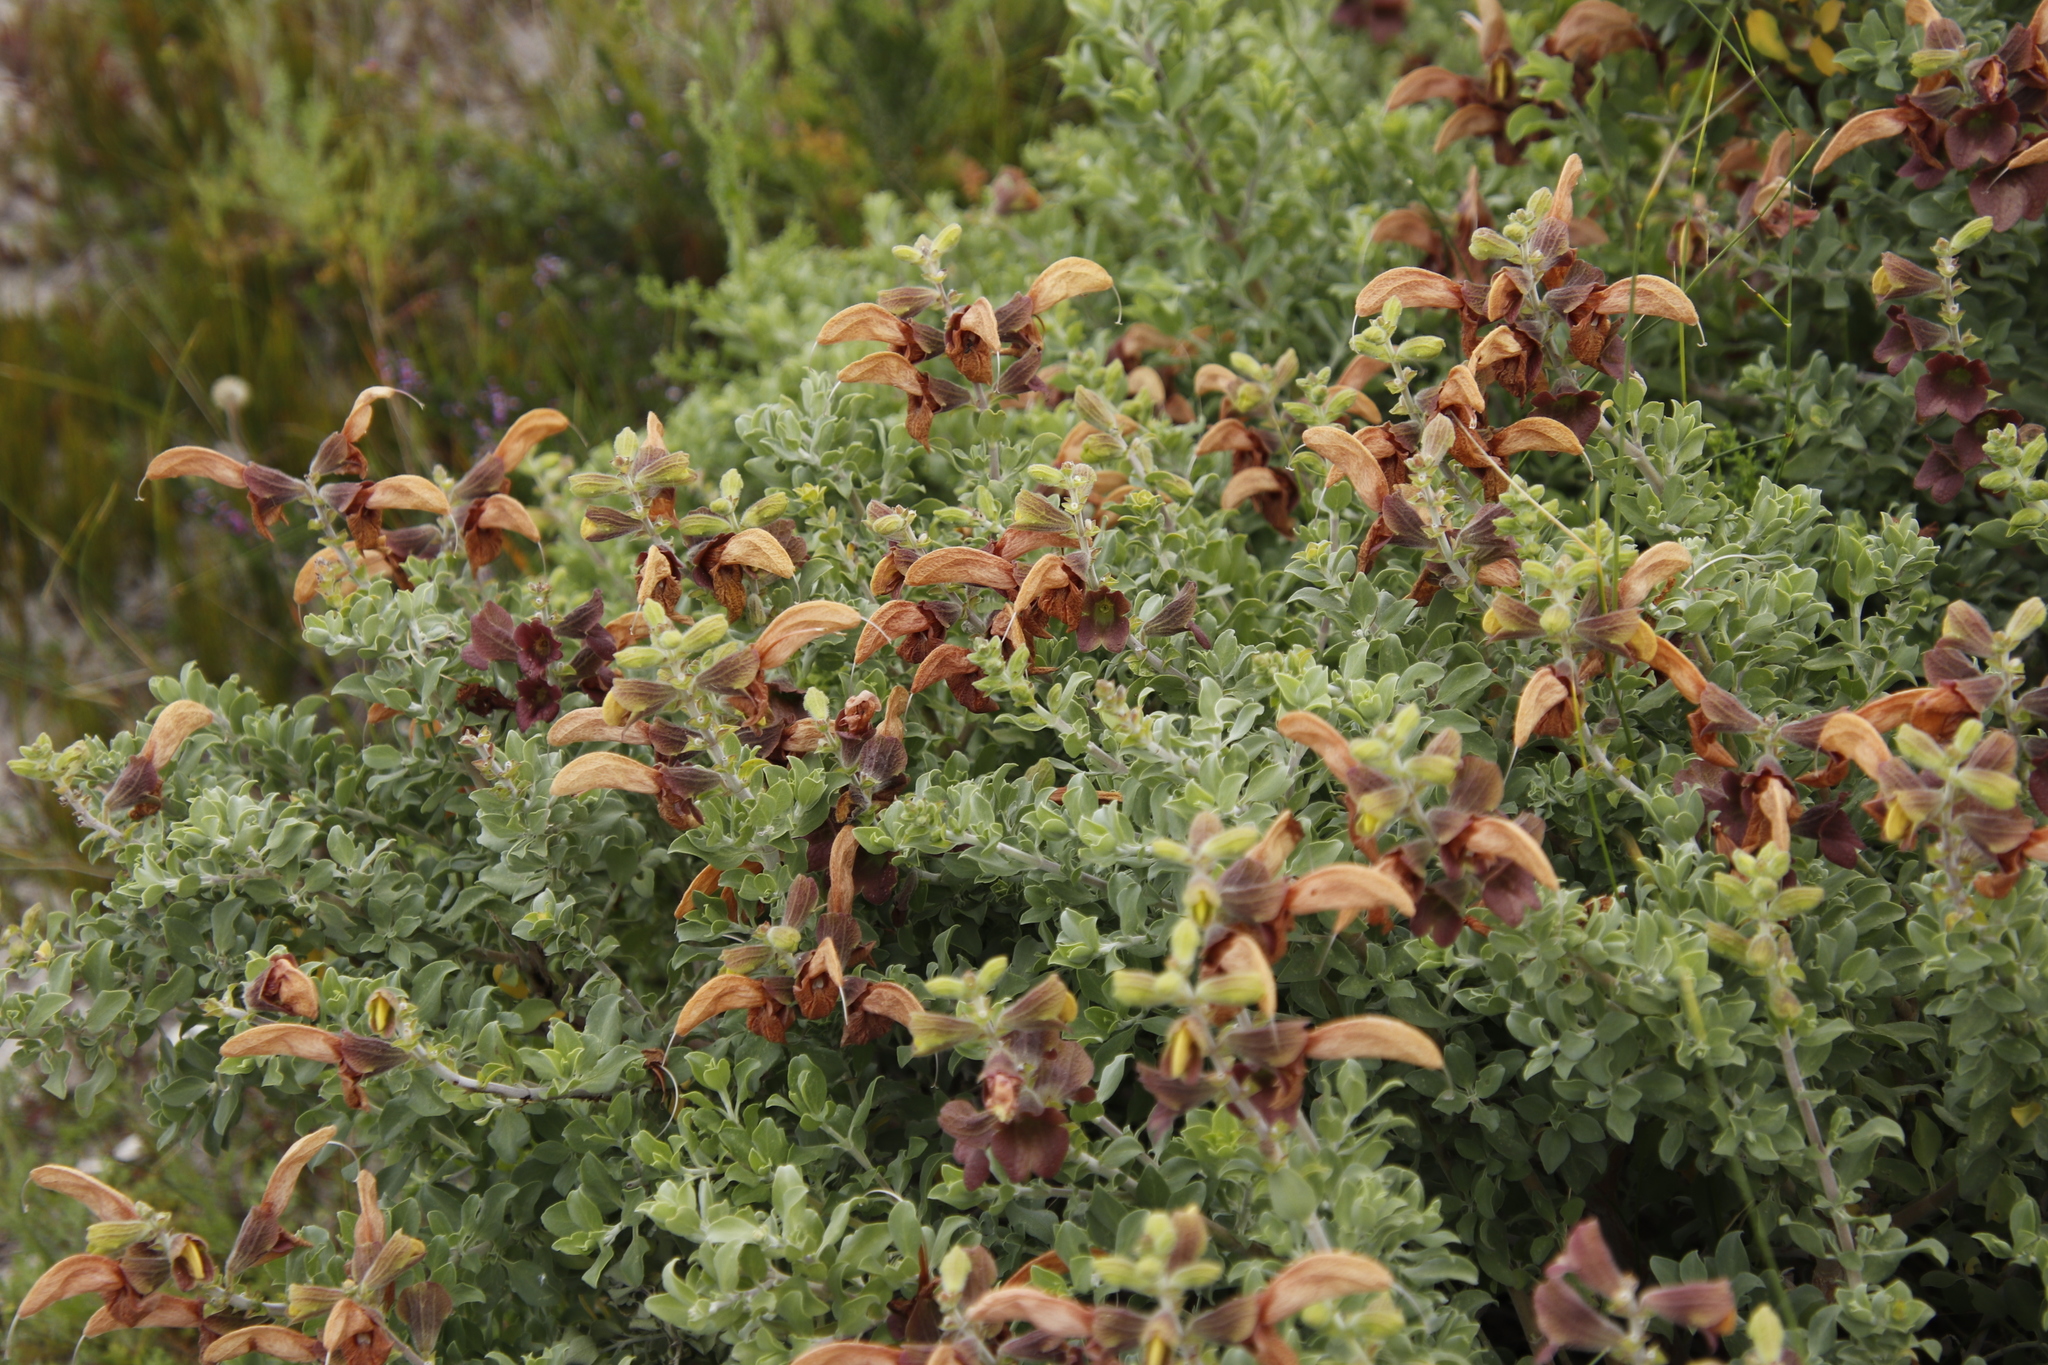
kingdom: Plantae
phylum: Tracheophyta
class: Magnoliopsida
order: Lamiales
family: Lamiaceae
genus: Salvia
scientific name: Salvia aurea
